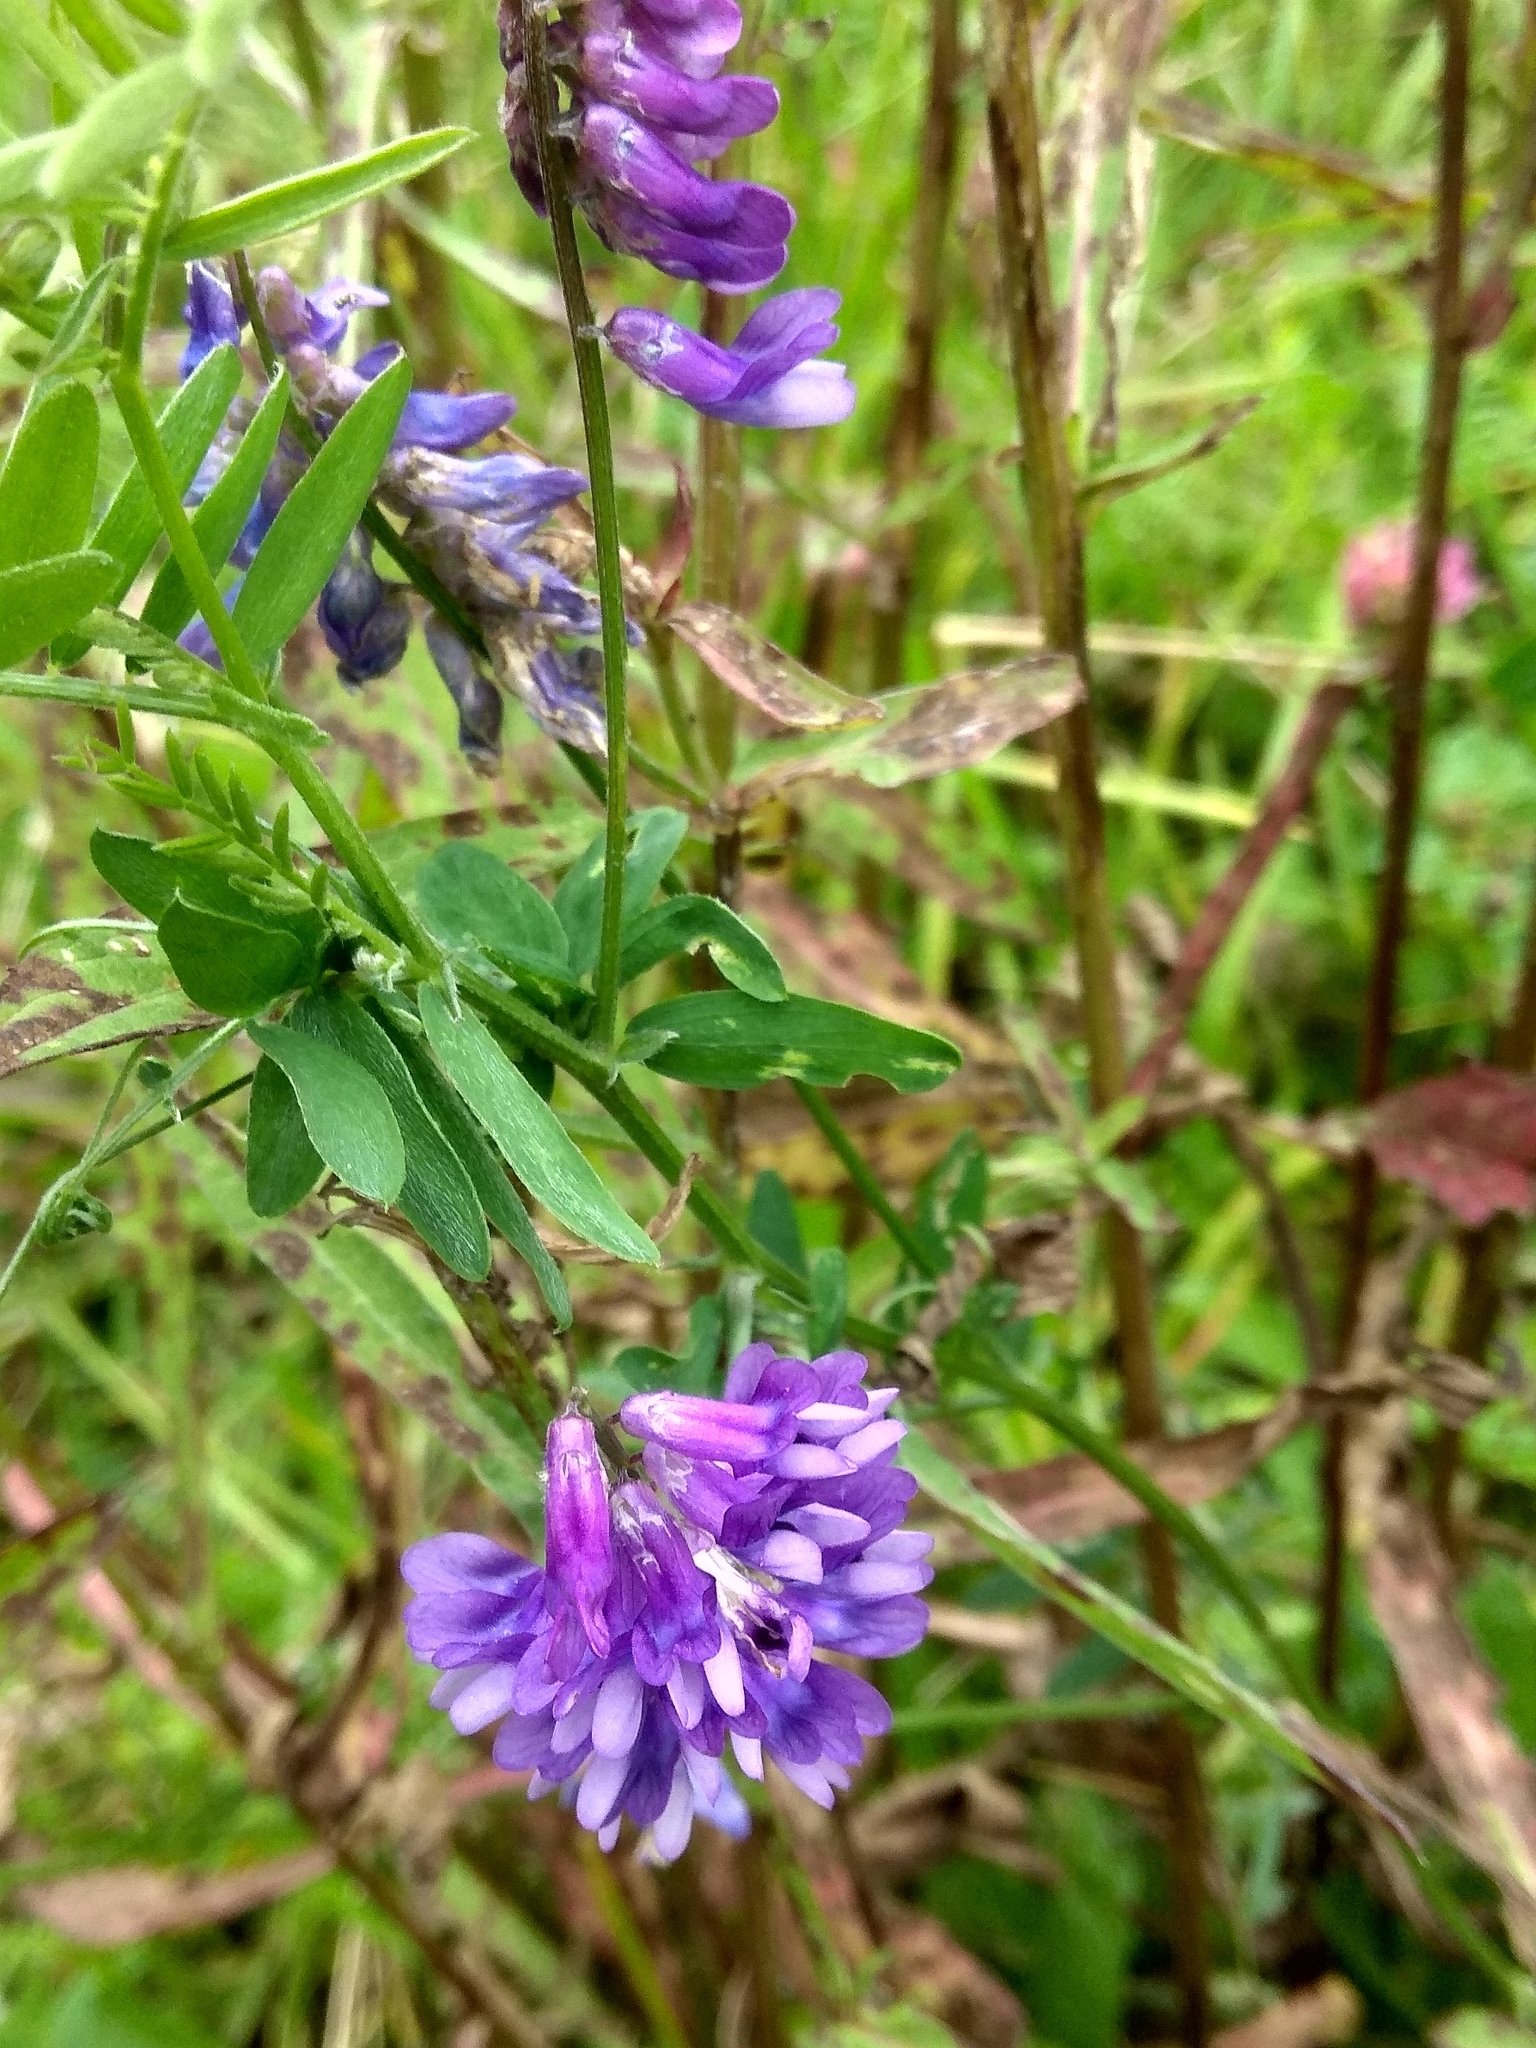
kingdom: Plantae
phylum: Tracheophyta
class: Magnoliopsida
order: Fabales
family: Fabaceae
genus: Vicia
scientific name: Vicia cracca
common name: Bird vetch
